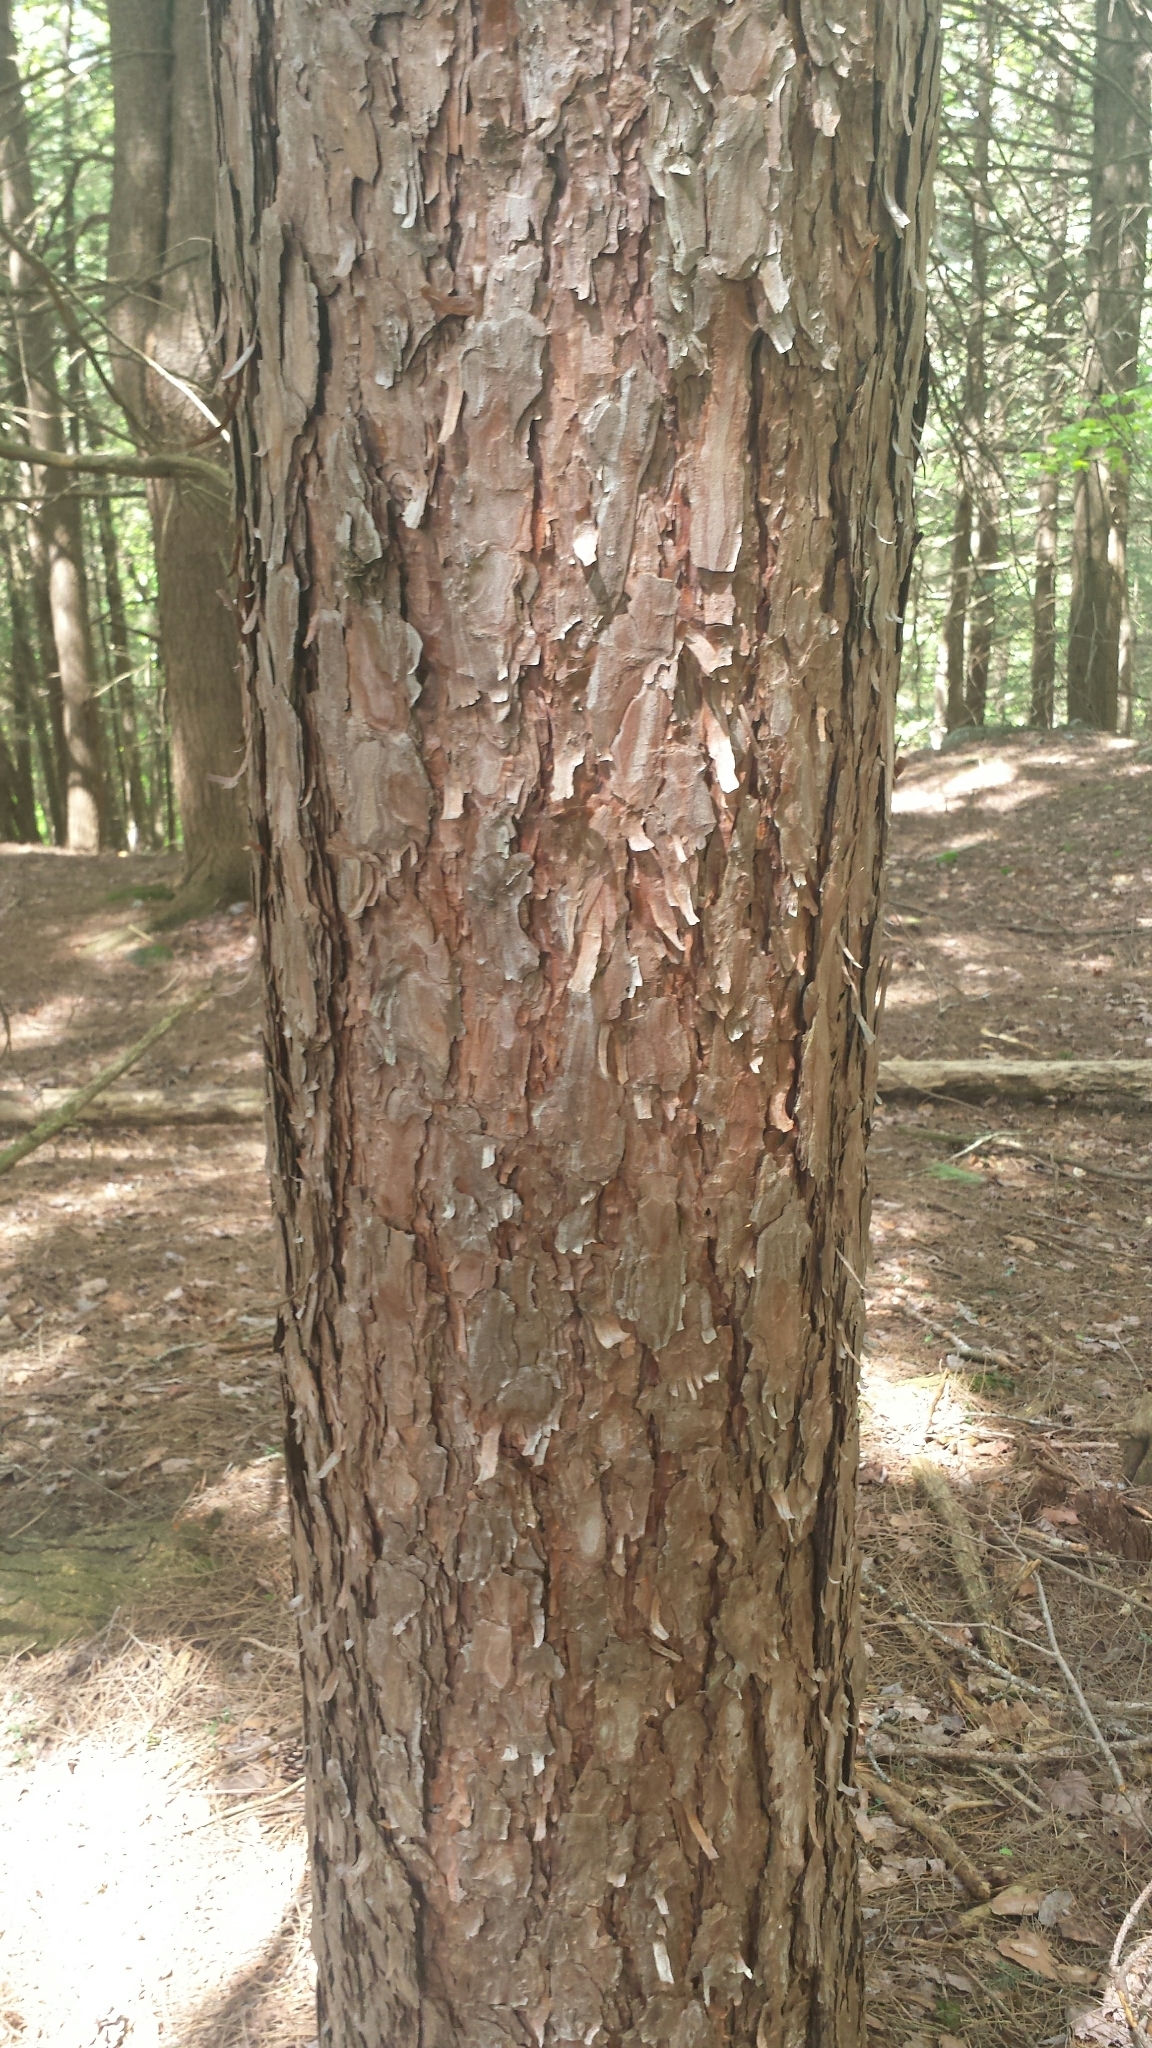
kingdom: Plantae
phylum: Tracheophyta
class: Pinopsida
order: Pinales
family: Pinaceae
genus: Pinus
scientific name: Pinus resinosa
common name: Norway pine
